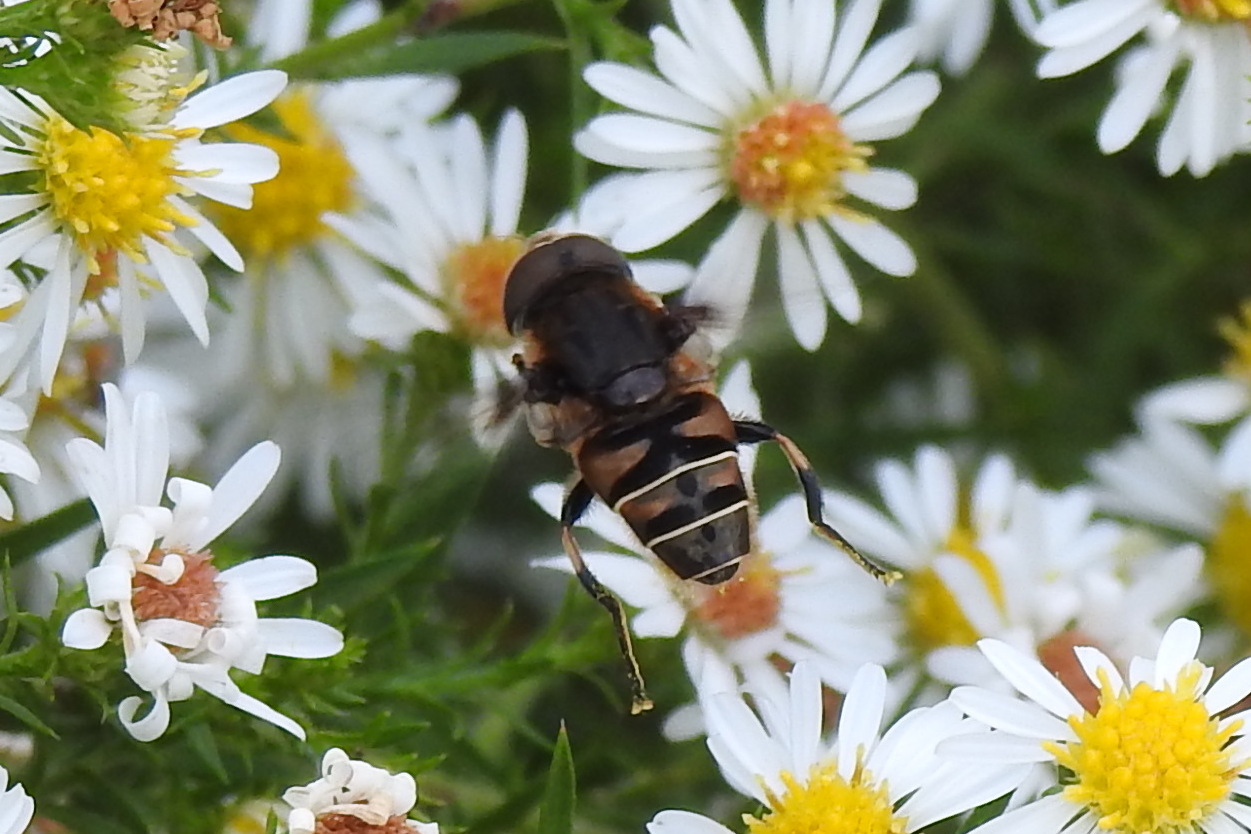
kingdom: Animalia
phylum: Arthropoda
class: Insecta
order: Diptera
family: Syrphidae
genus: Eristalis
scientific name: Eristalis dimidiata
